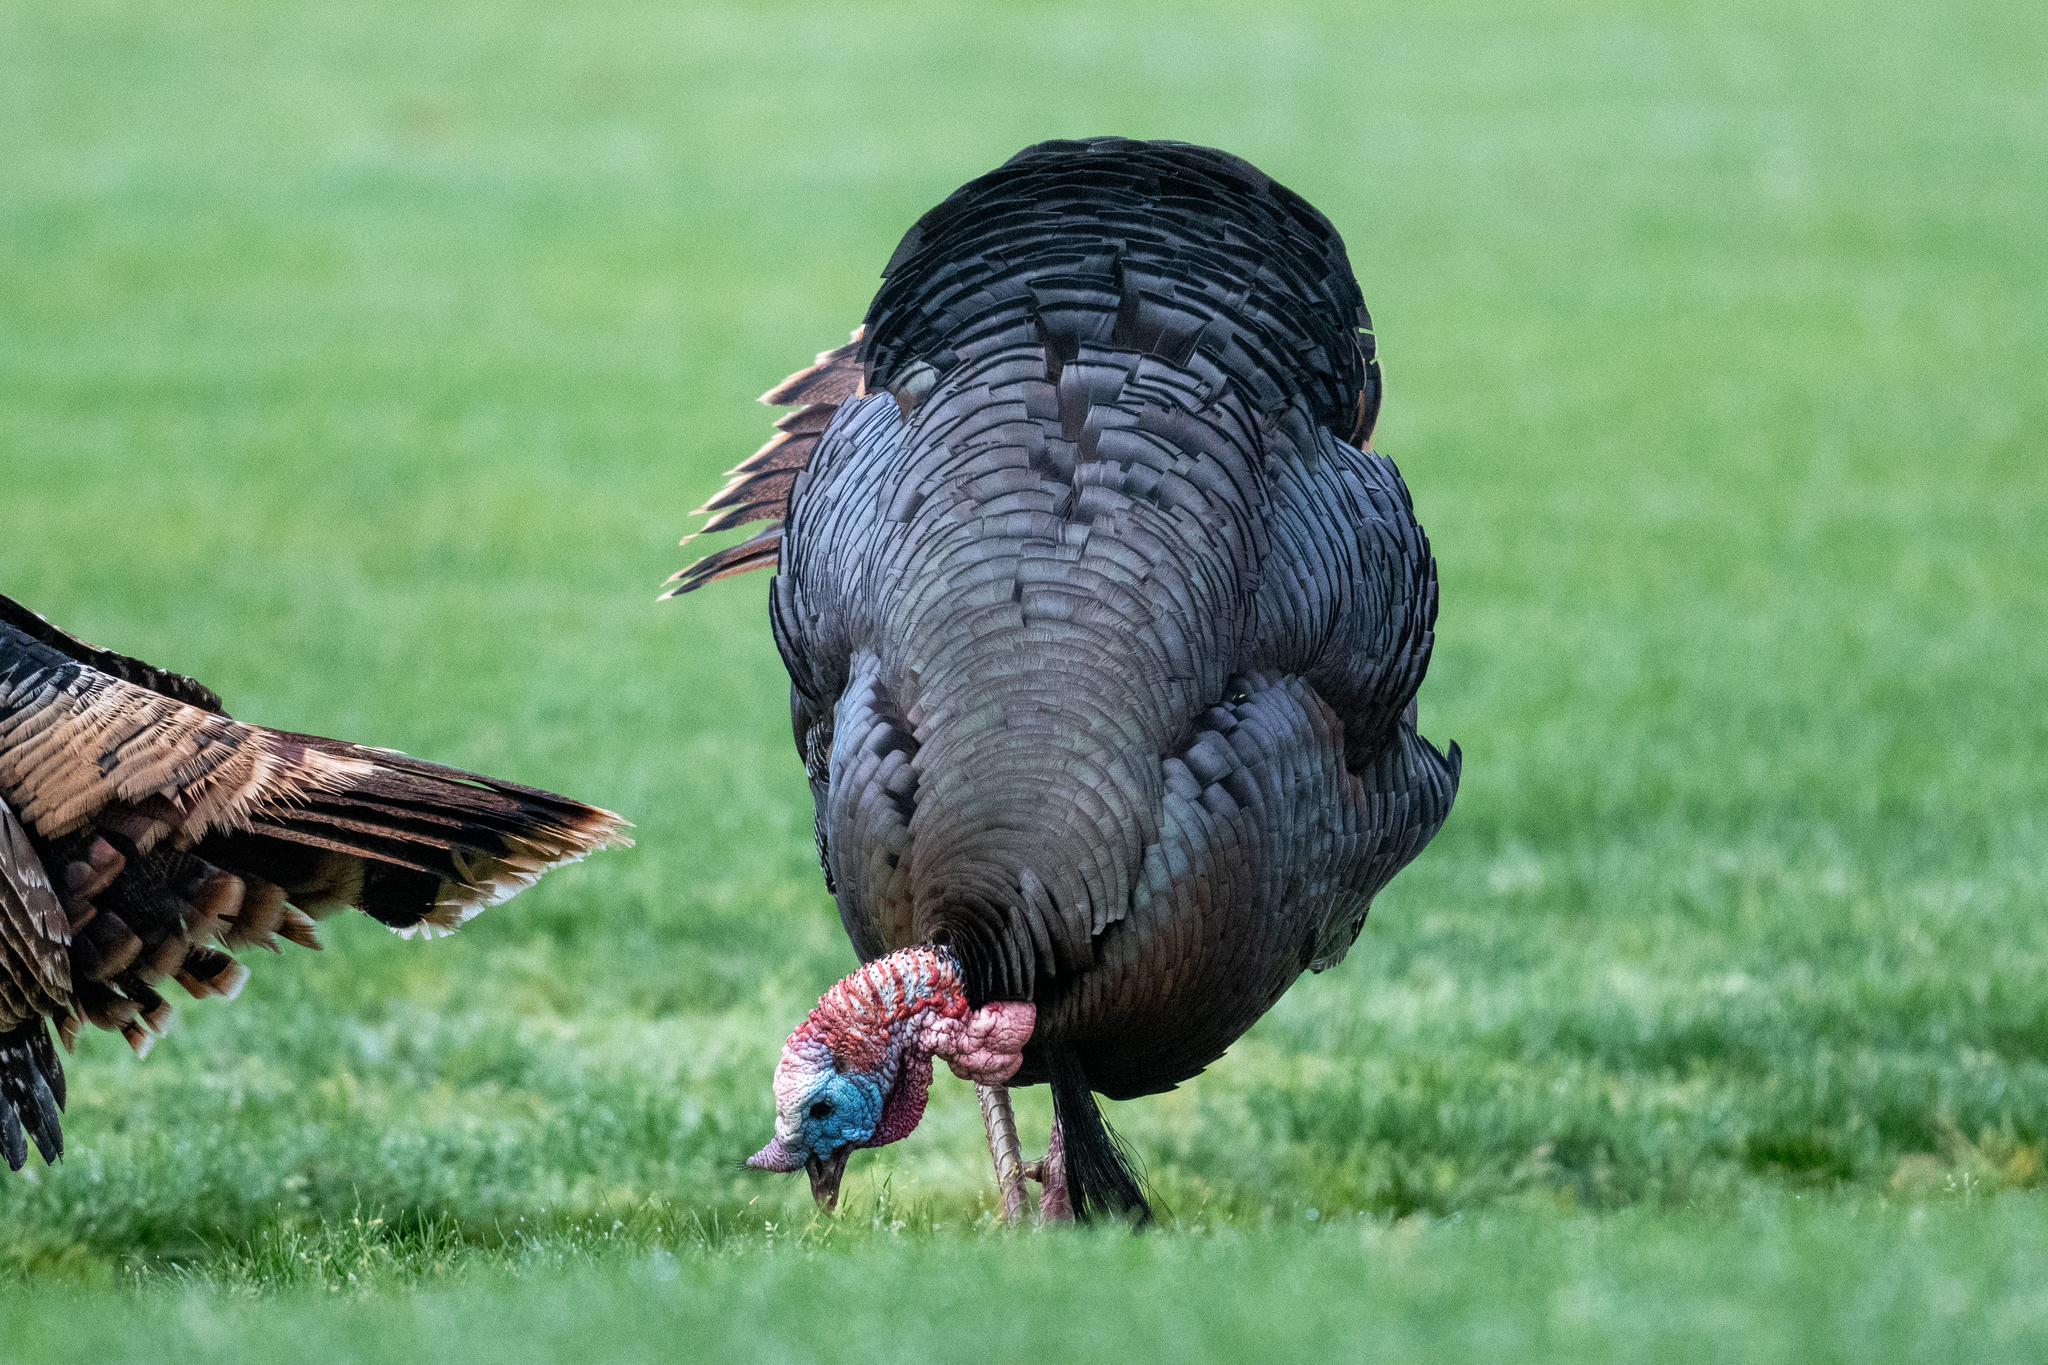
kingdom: Animalia
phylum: Chordata
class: Aves
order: Galliformes
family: Phasianidae
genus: Meleagris
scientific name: Meleagris gallopavo
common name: Wild turkey
